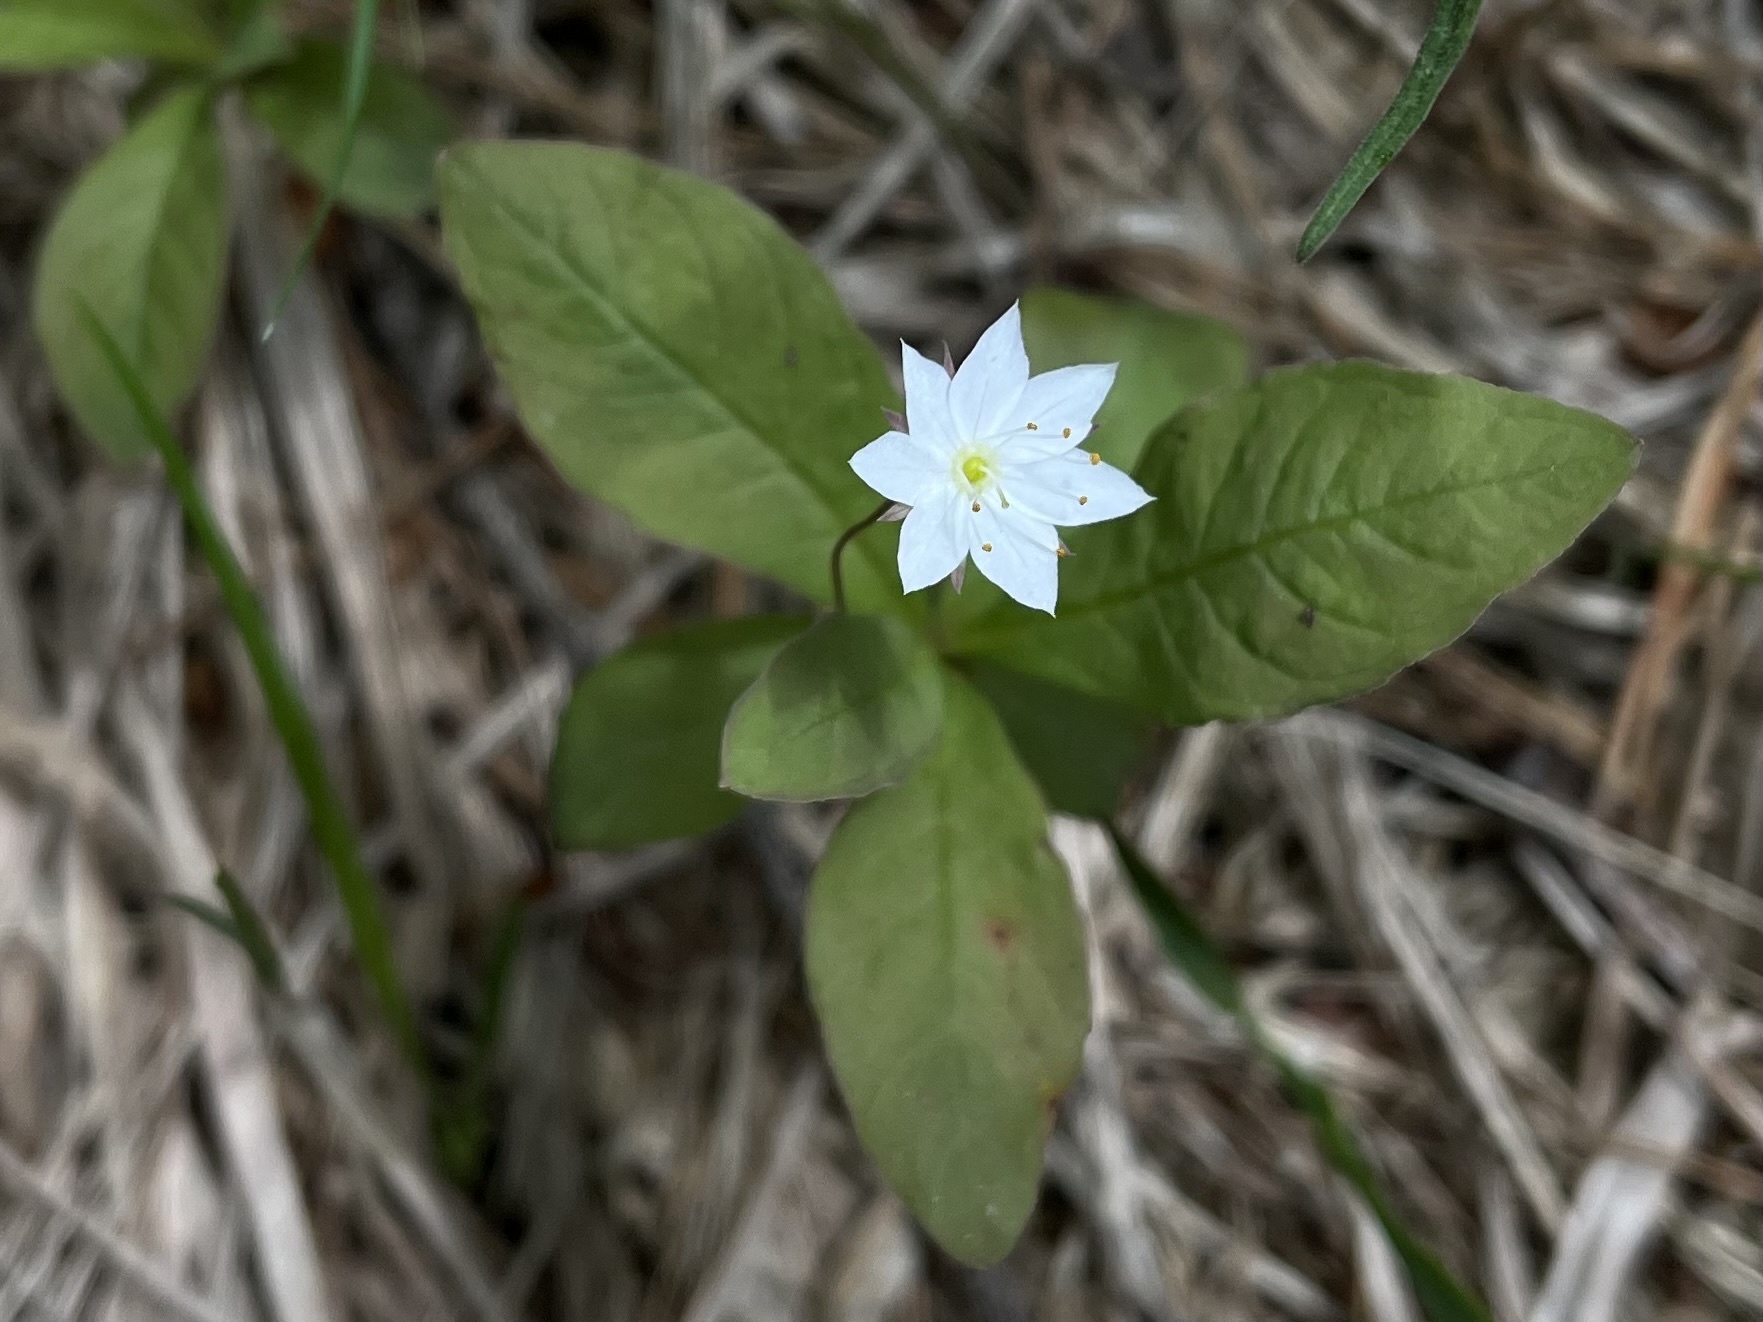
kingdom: Plantae
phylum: Tracheophyta
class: Magnoliopsida
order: Ericales
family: Primulaceae
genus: Lysimachia
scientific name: Lysimachia europaea
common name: Arctic starflower
